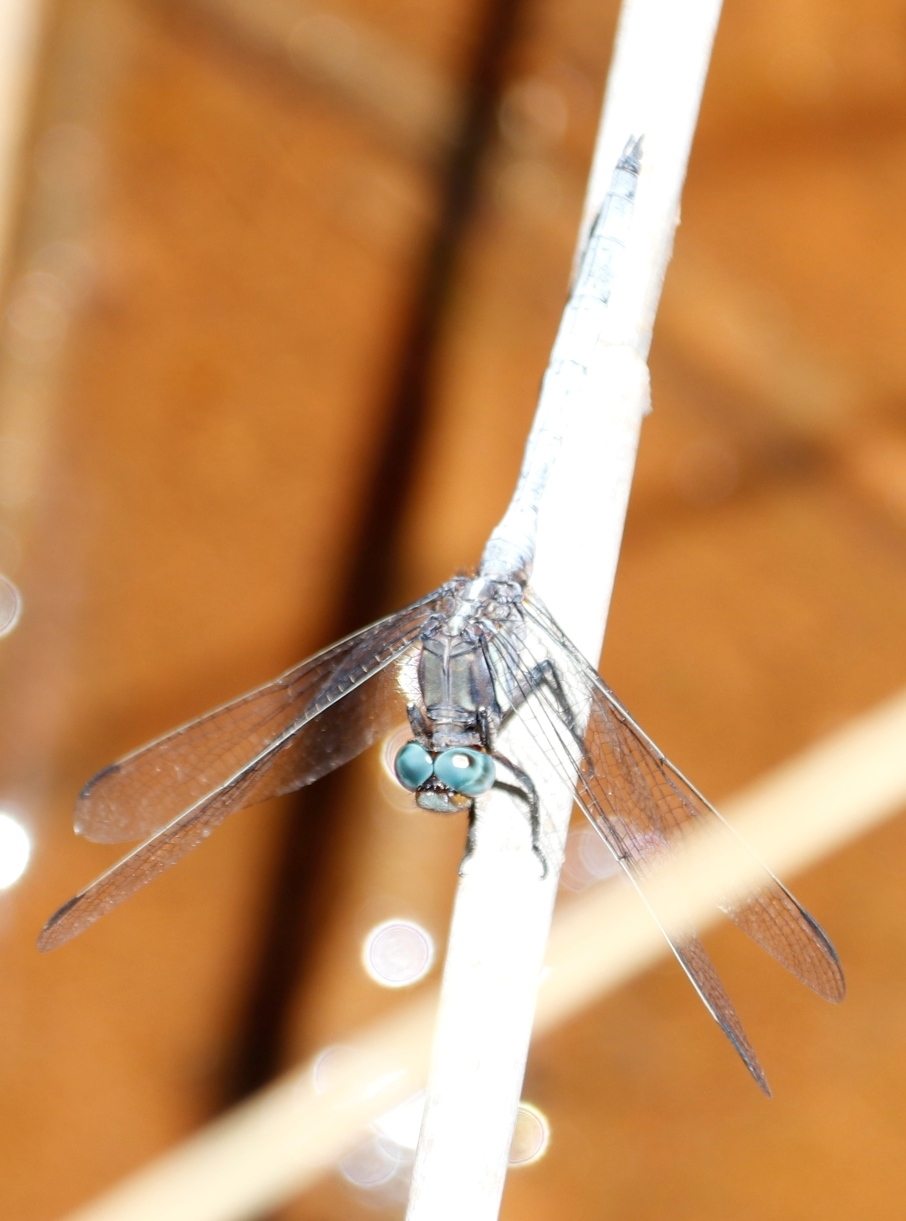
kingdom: Animalia
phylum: Arthropoda
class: Insecta
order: Odonata
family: Libellulidae
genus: Orthetrum
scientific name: Orthetrum julia
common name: Julia skimmer
